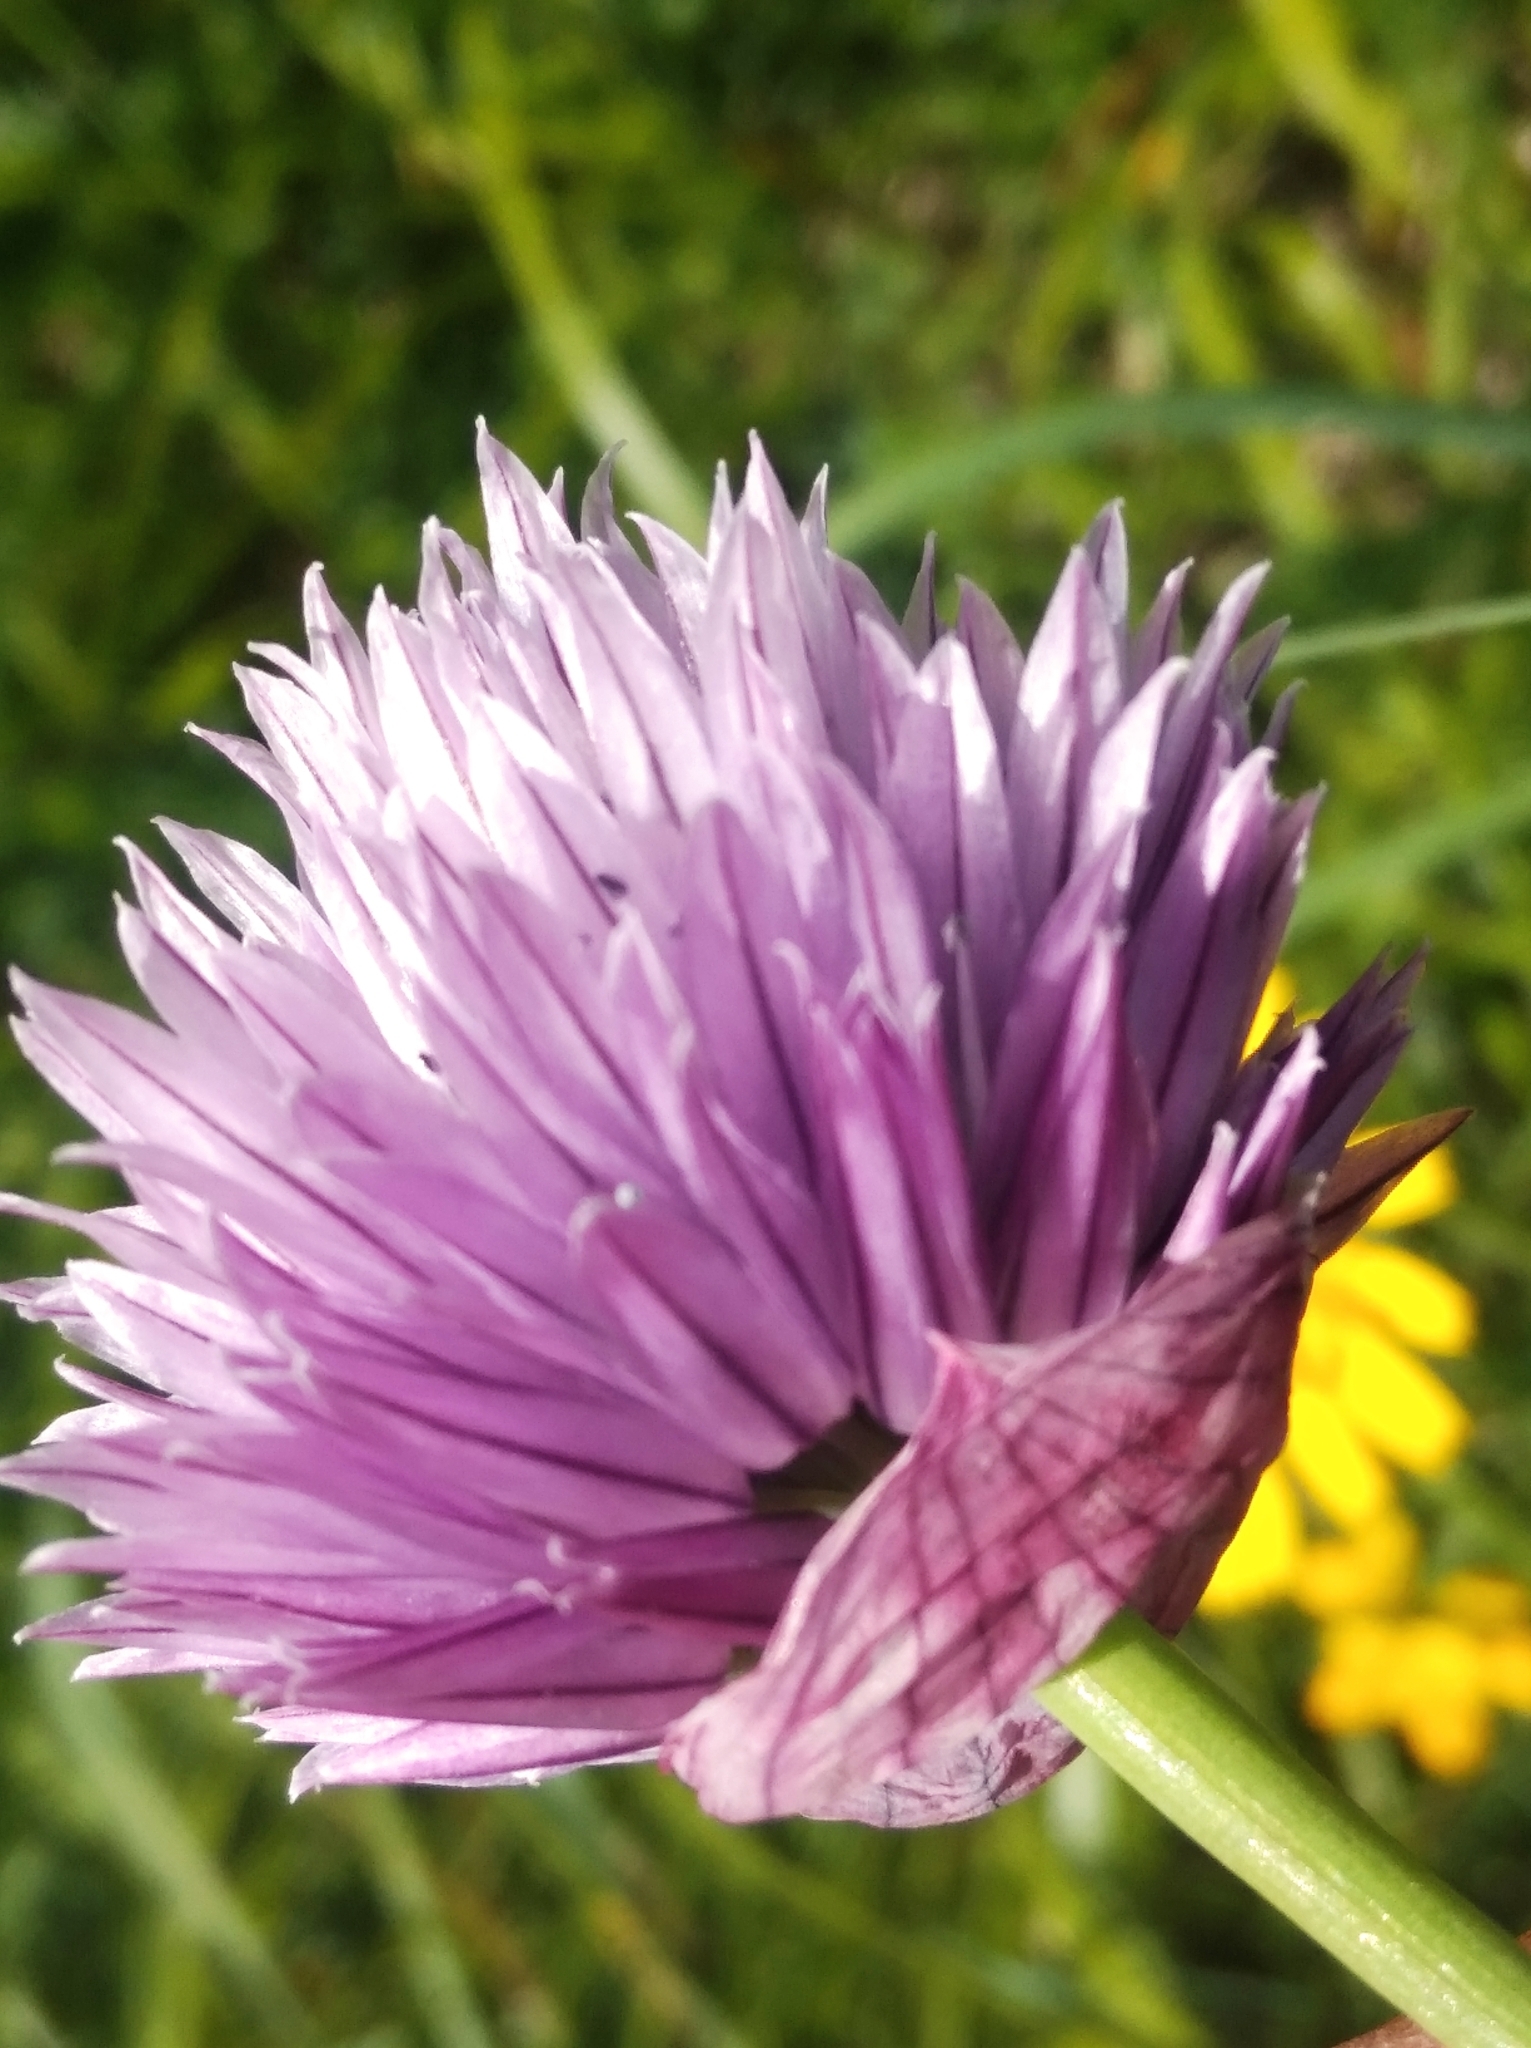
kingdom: Plantae
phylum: Tracheophyta
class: Liliopsida
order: Asparagales
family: Amaryllidaceae
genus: Allium
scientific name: Allium schoenoprasum
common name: Chives
